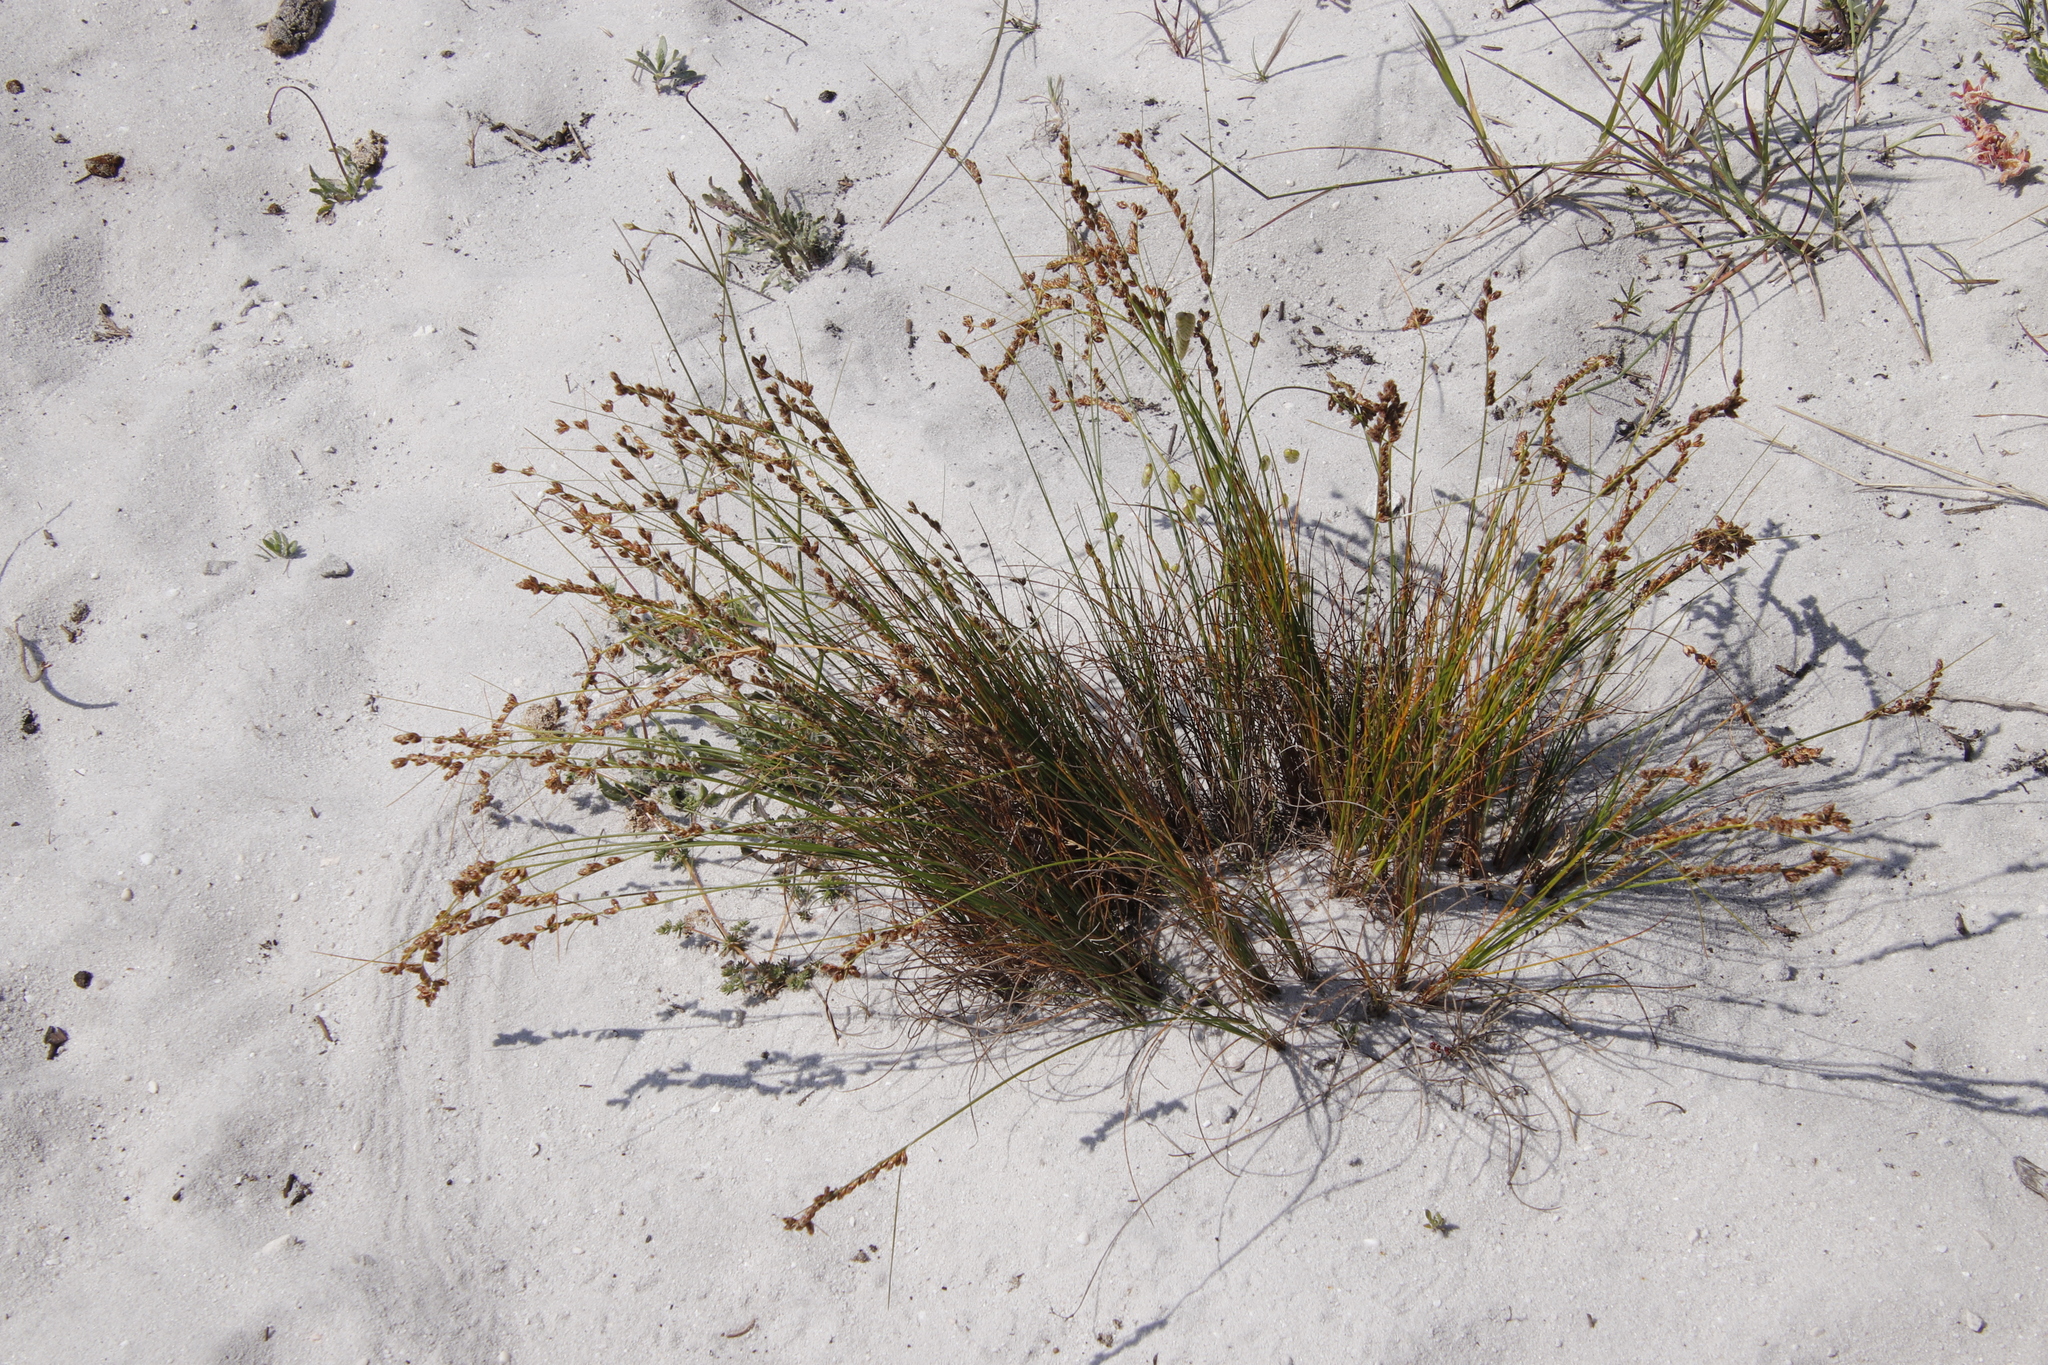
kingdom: Plantae
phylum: Tracheophyta
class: Liliopsida
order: Poales
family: Cyperaceae
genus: Ficinia
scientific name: Ficinia secunda
